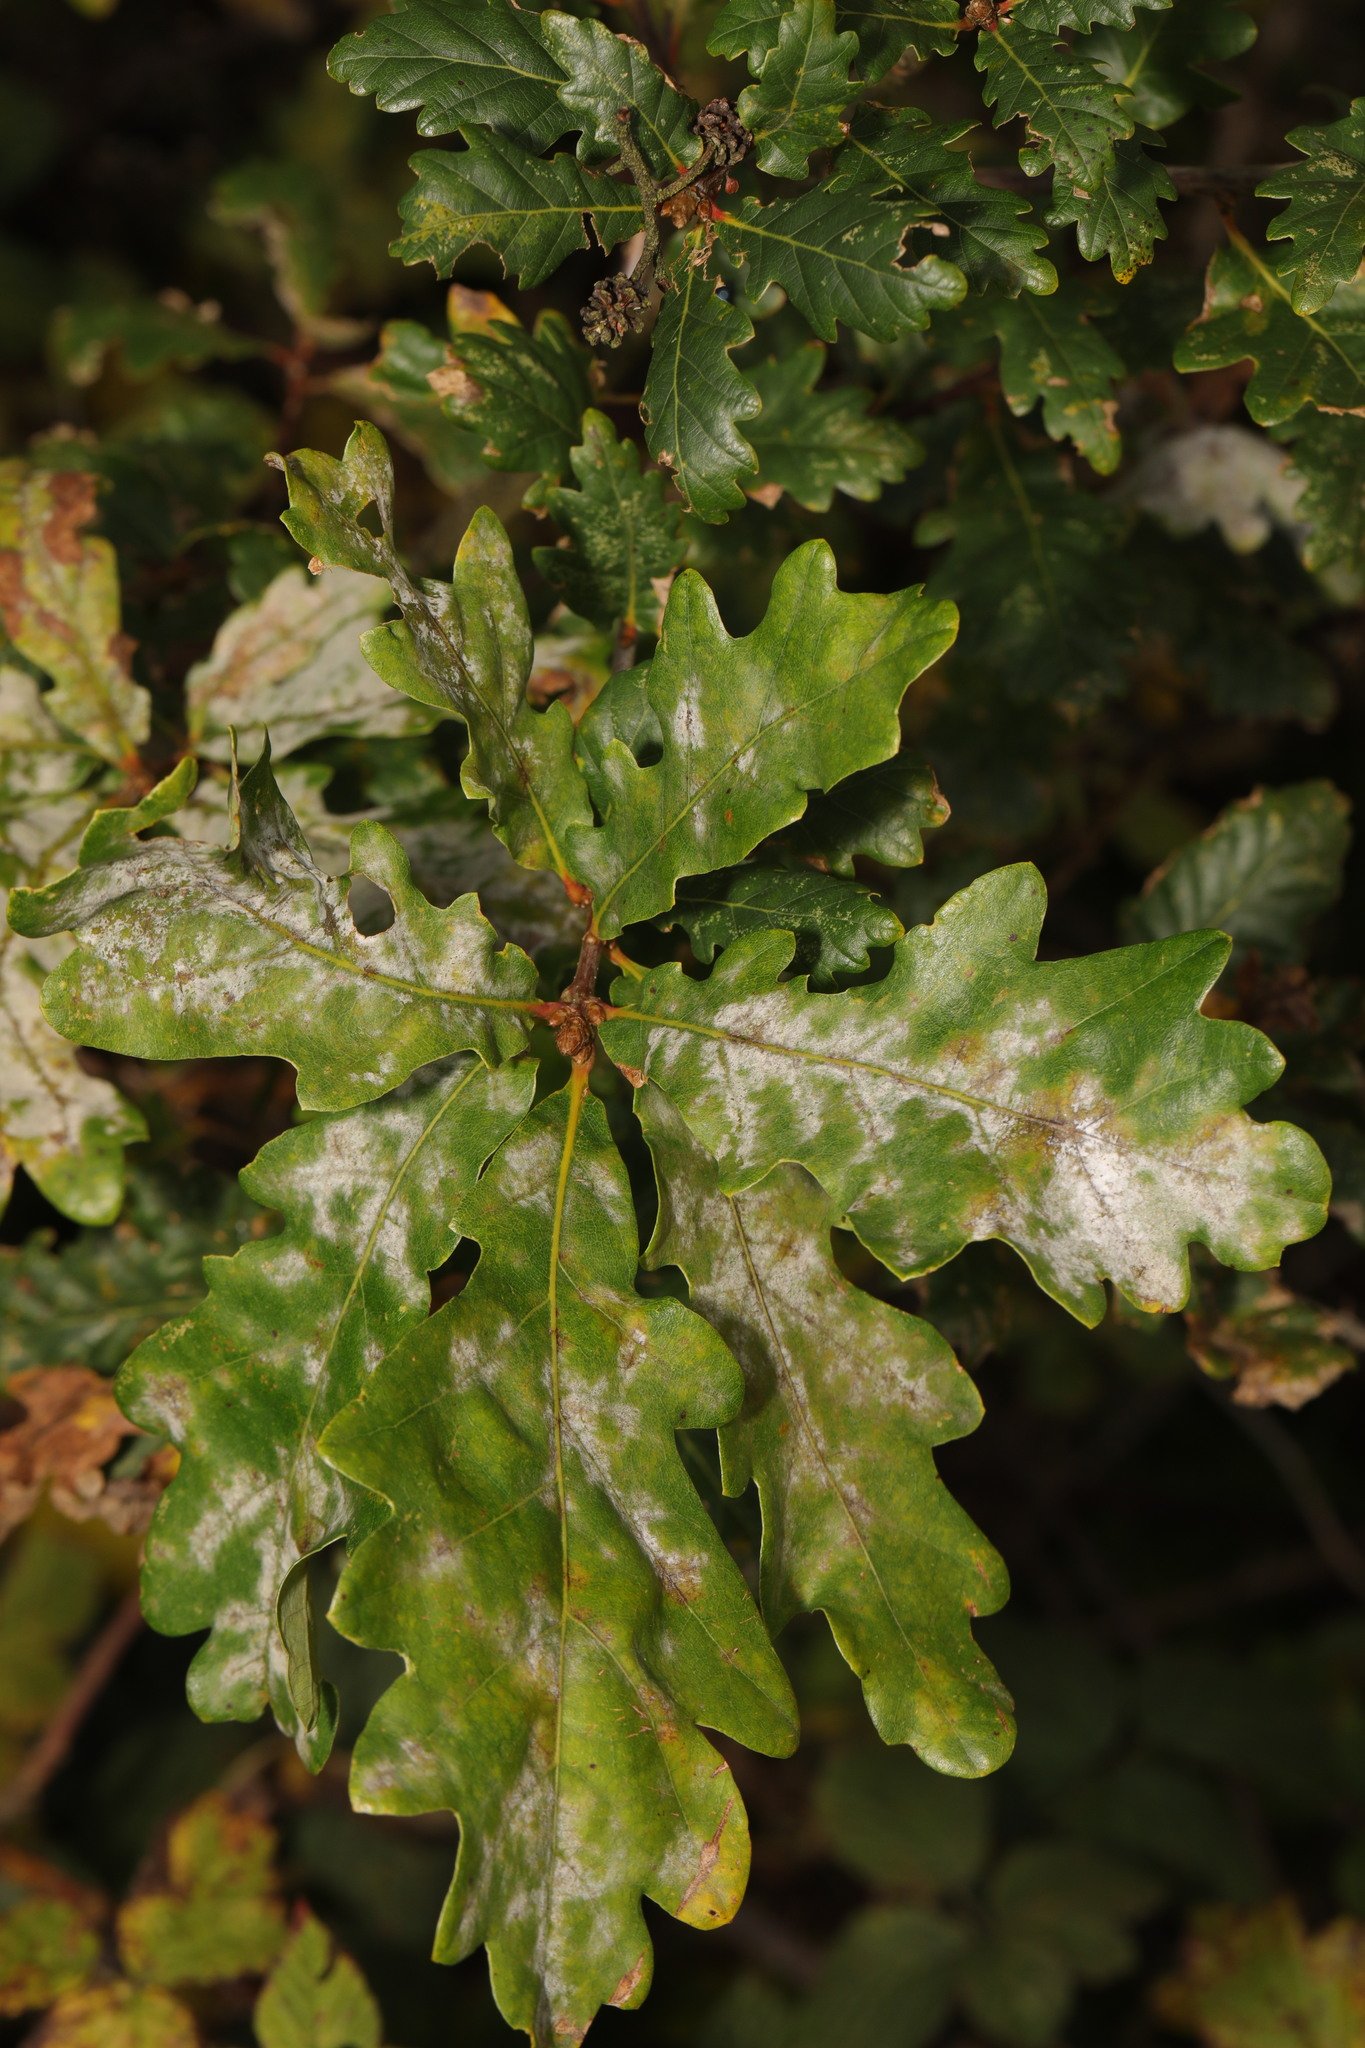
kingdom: Plantae
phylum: Tracheophyta
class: Magnoliopsida
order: Fagales
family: Fagaceae
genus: Quercus
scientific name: Quercus robur
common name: Pedunculate oak
